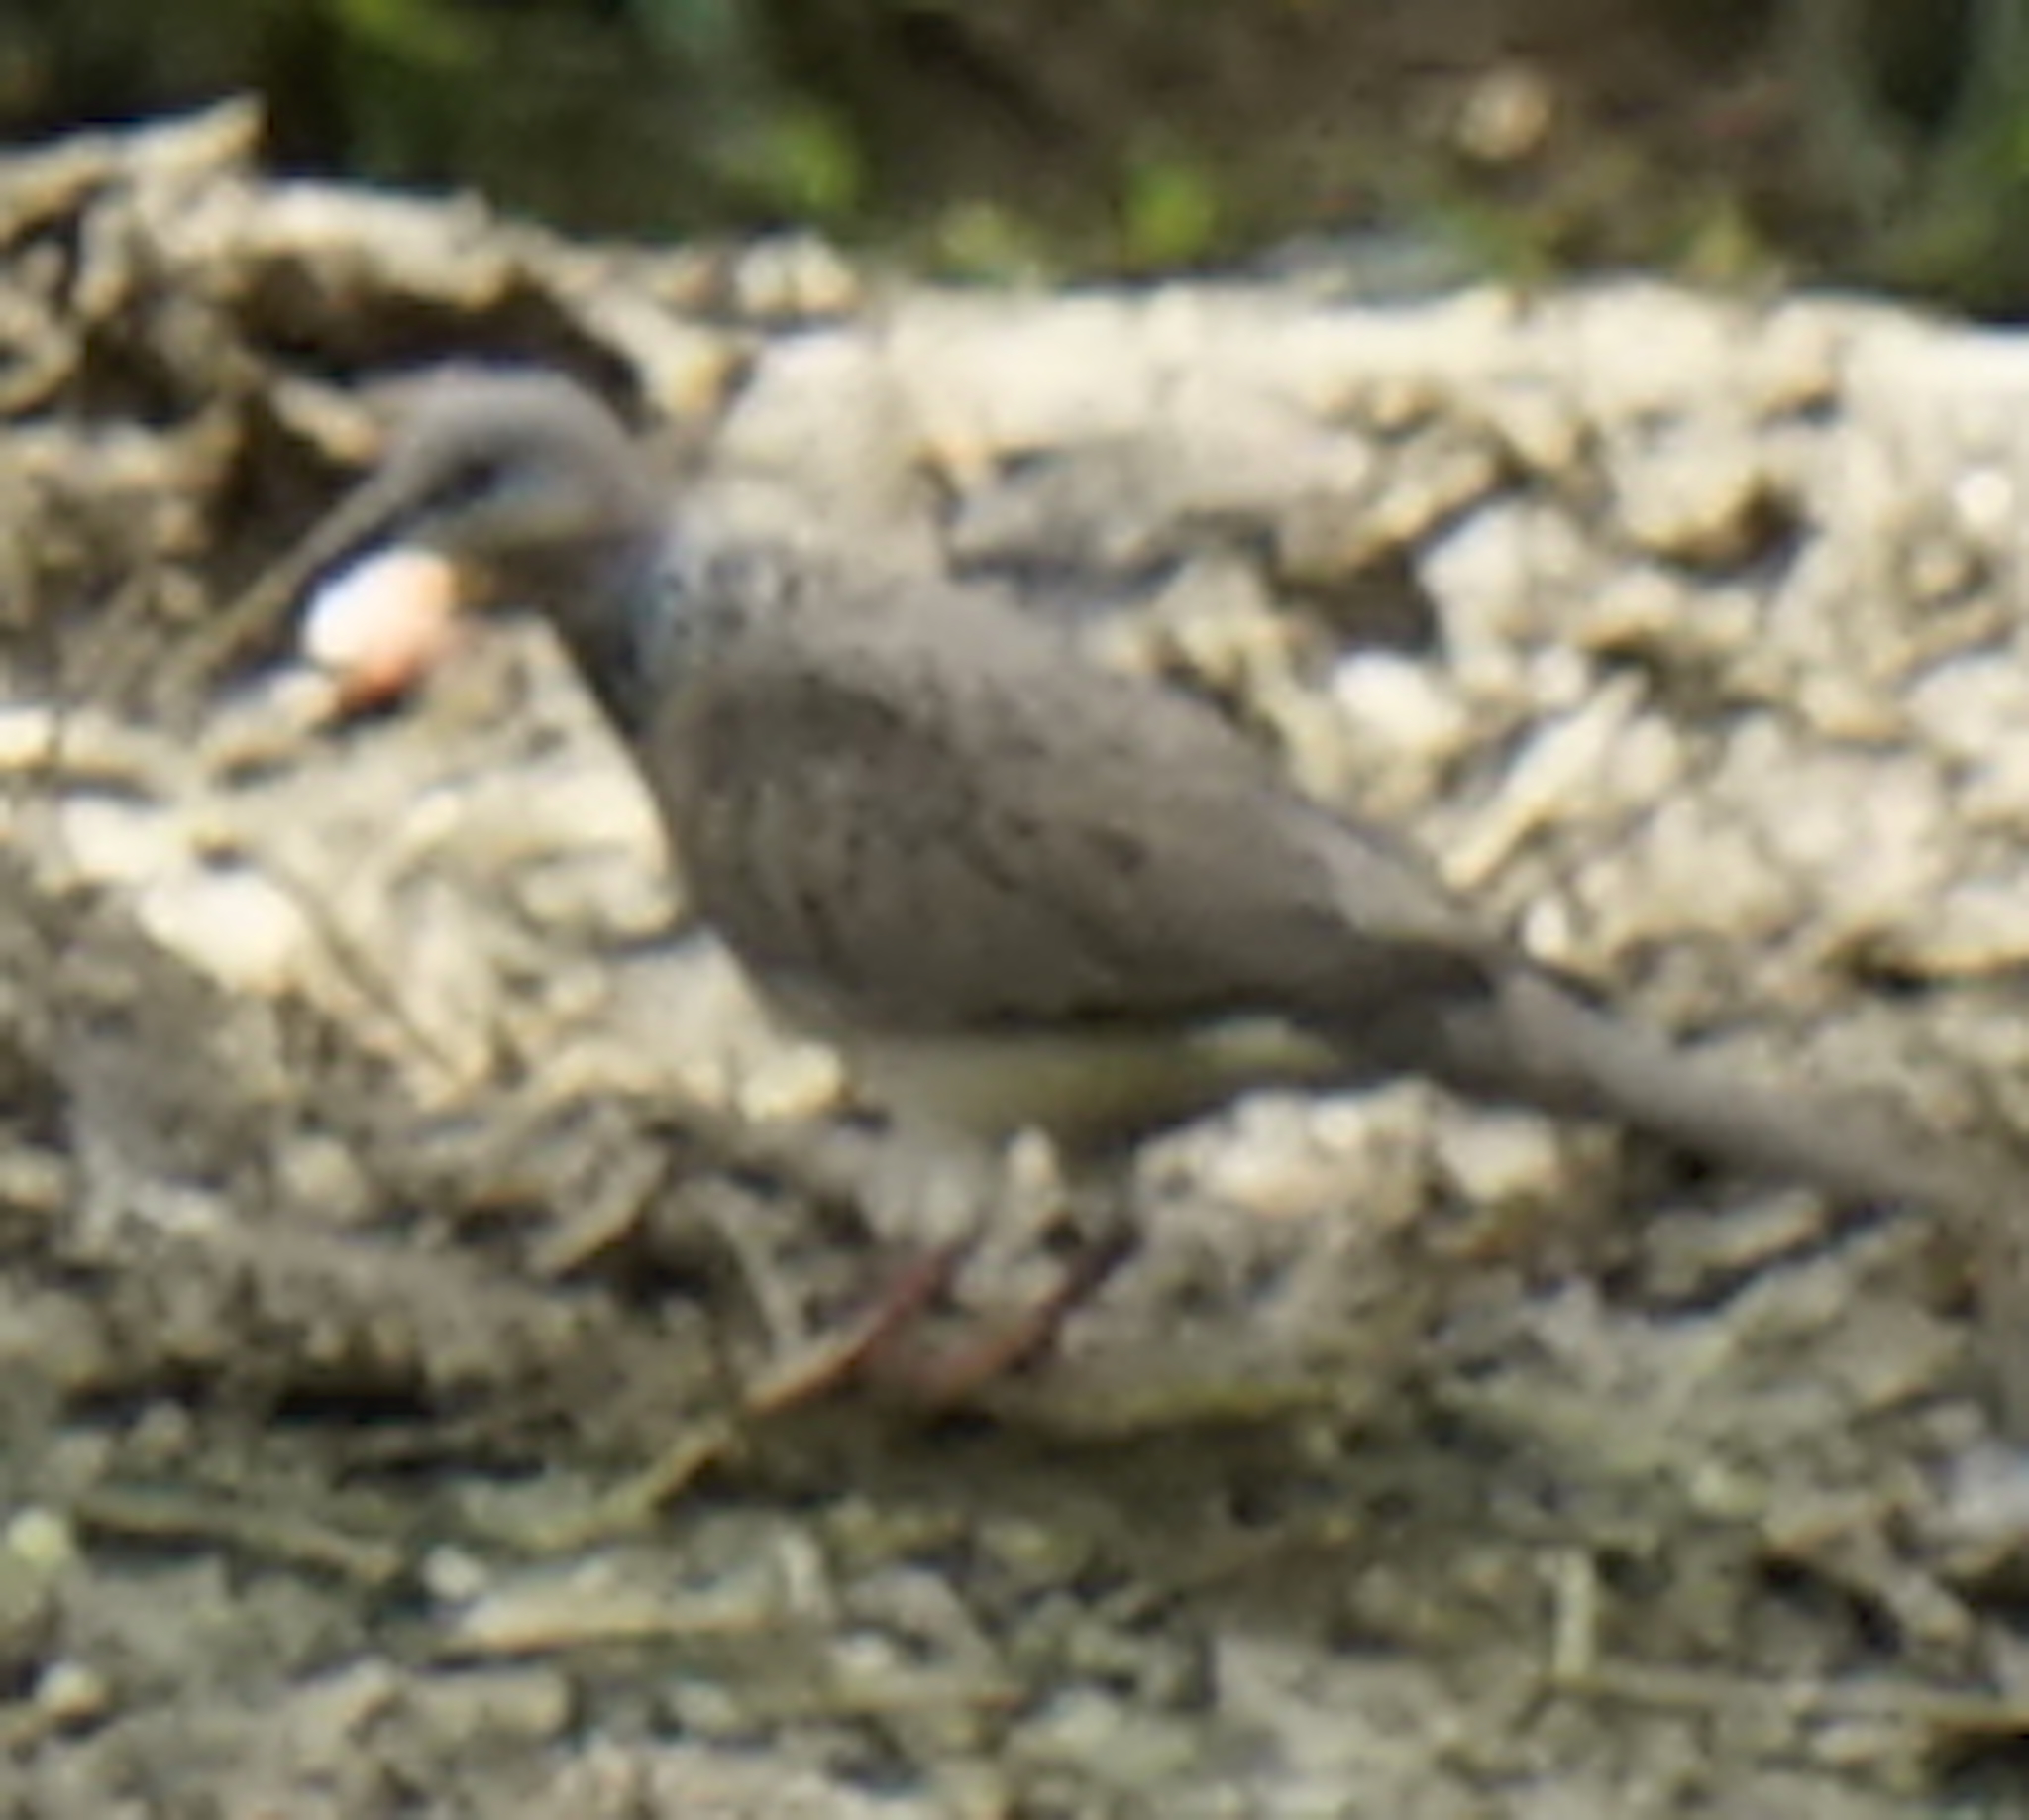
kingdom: Animalia
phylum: Chordata
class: Aves
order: Columbiformes
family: Columbidae
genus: Spilopelia
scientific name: Spilopelia chinensis
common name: Spotted dove
